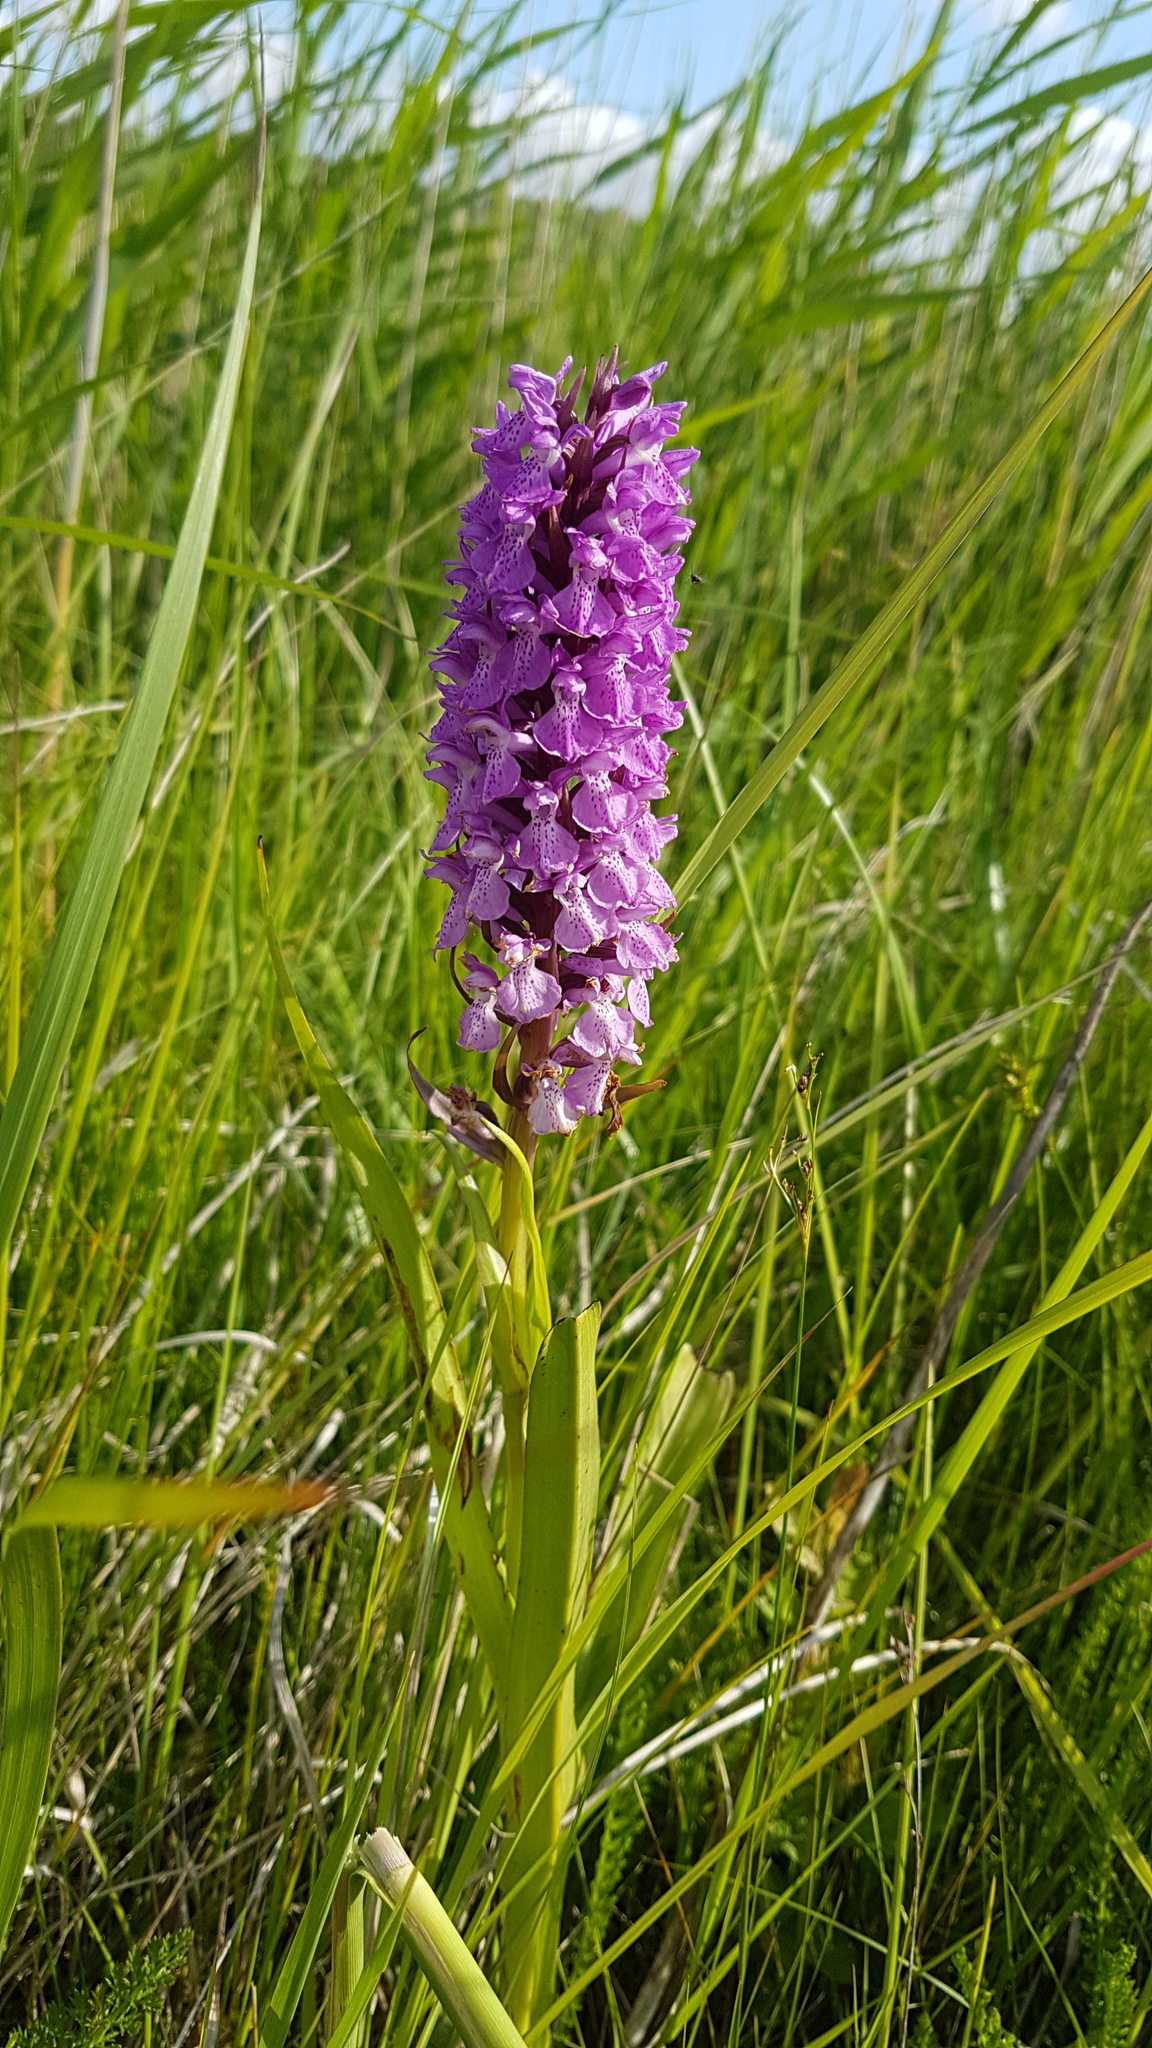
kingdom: Plantae
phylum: Tracheophyta
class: Liliopsida
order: Asparagales
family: Orchidaceae
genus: Dactylorhiza
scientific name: Dactylorhiza majalis
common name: Marsh orchid
